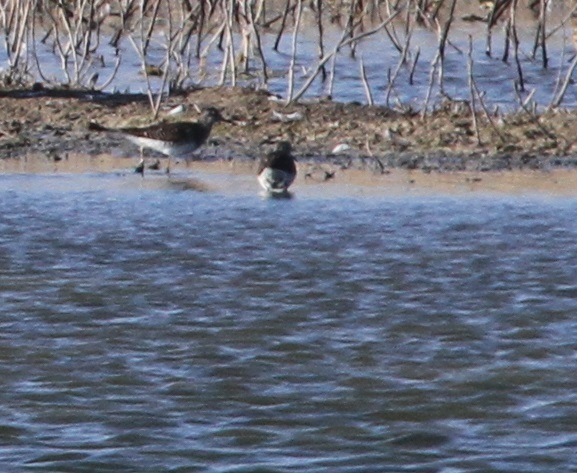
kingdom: Animalia
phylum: Chordata
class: Aves
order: Charadriiformes
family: Scolopacidae
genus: Tringa
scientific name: Tringa ochropus
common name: Green sandpiper
